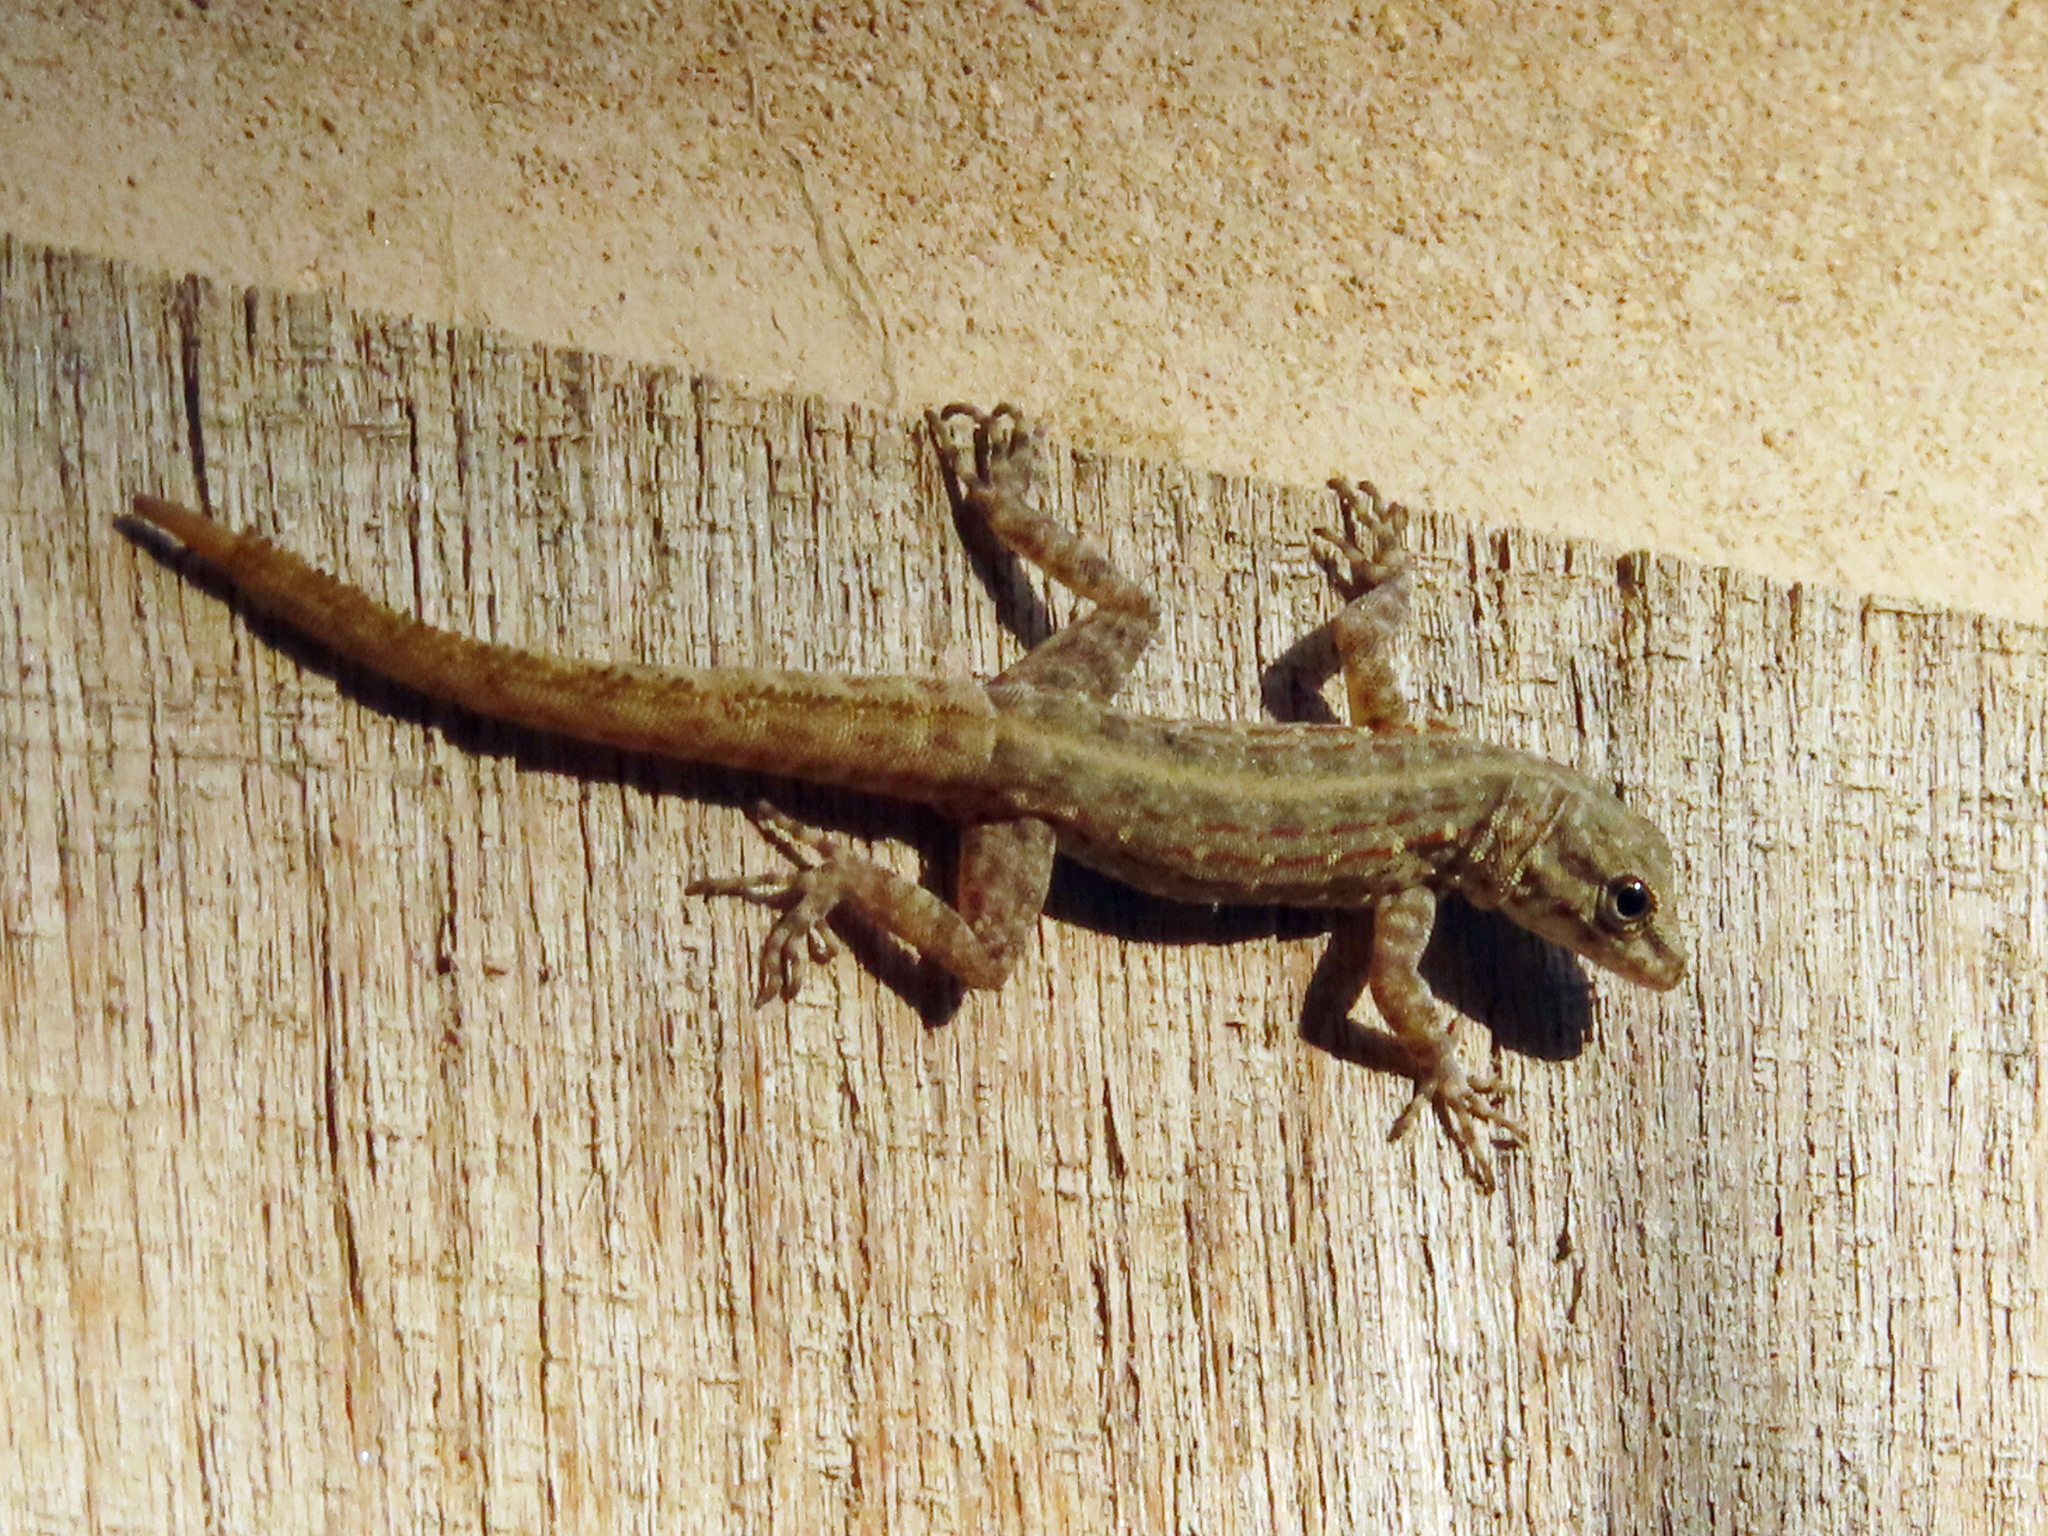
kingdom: Animalia
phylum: Chordata
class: Squamata
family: Sphaerodactylidae
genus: Pristurus
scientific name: Pristurus rupestris
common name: Blanford’s semaphore gecko
